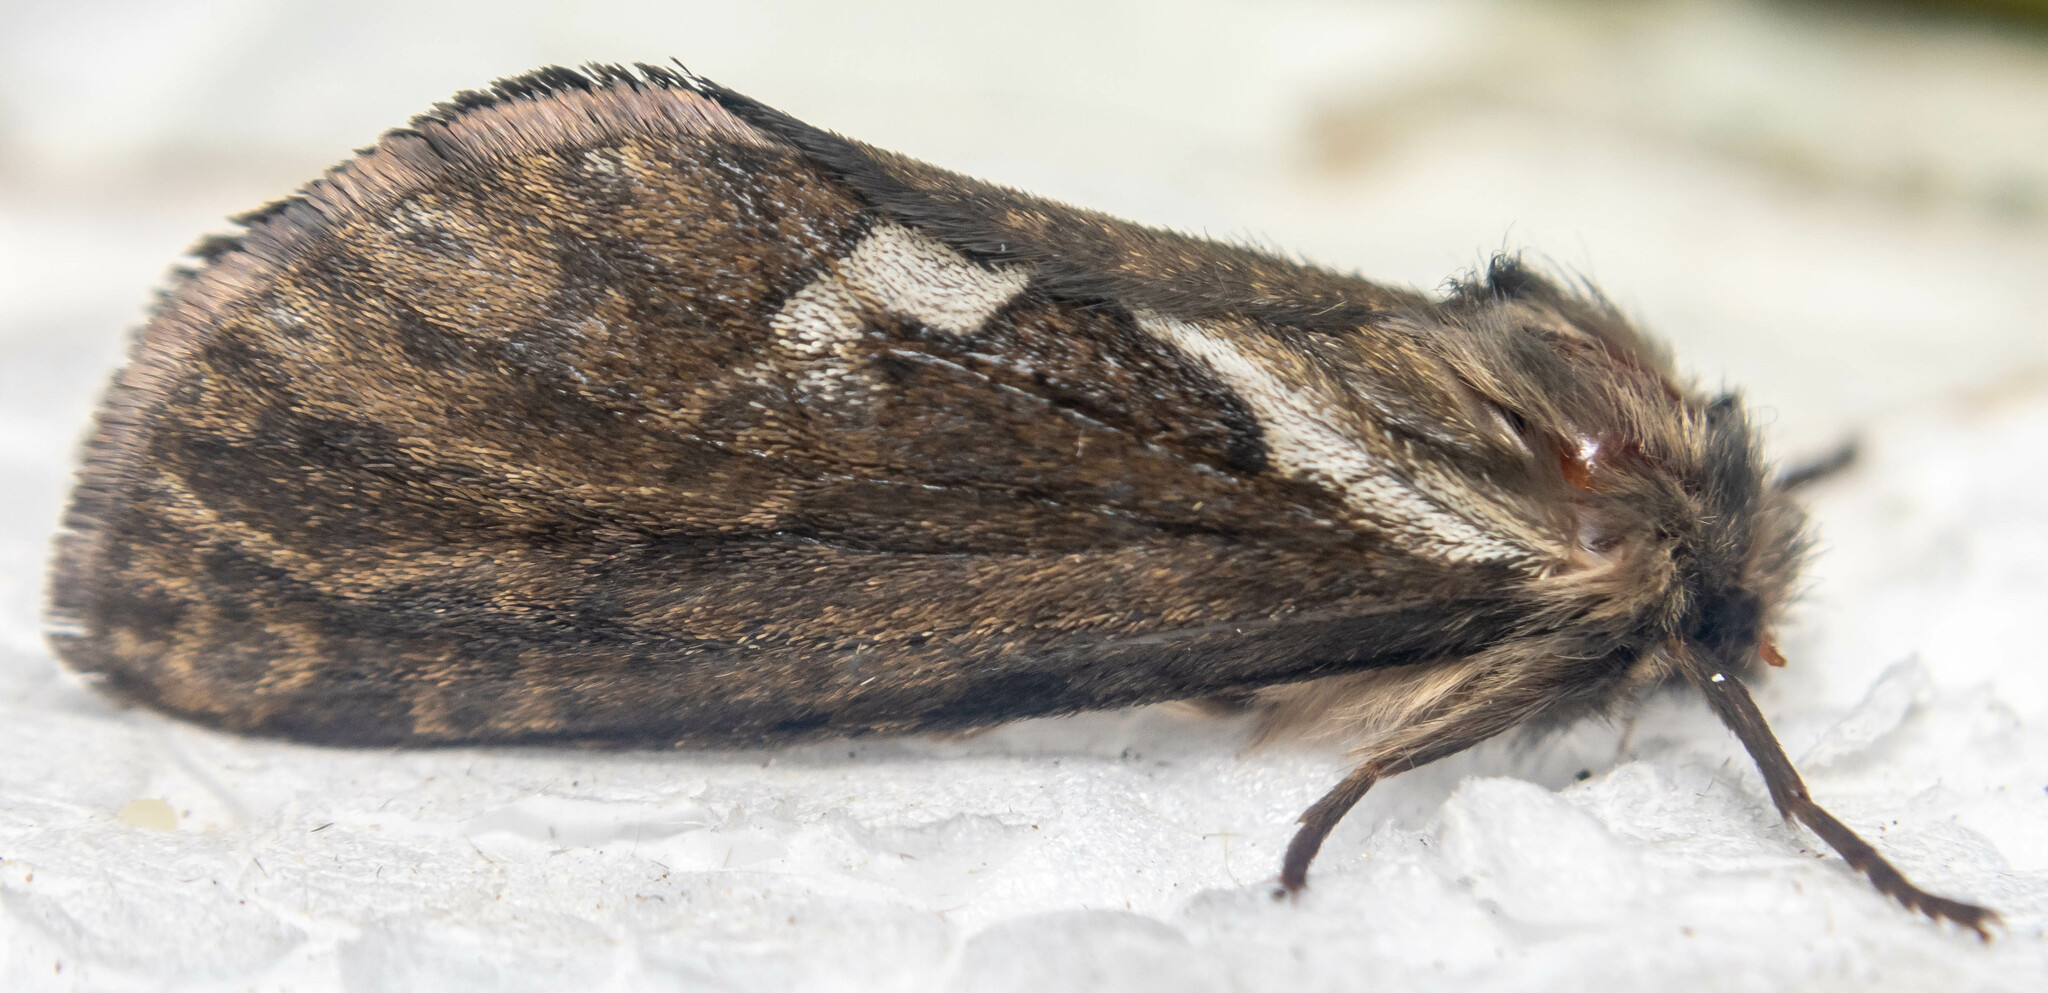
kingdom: Animalia
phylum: Arthropoda
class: Insecta
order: Lepidoptera
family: Hepialidae
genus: Korscheltellus
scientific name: Korscheltellus lupulina
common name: Common swift
